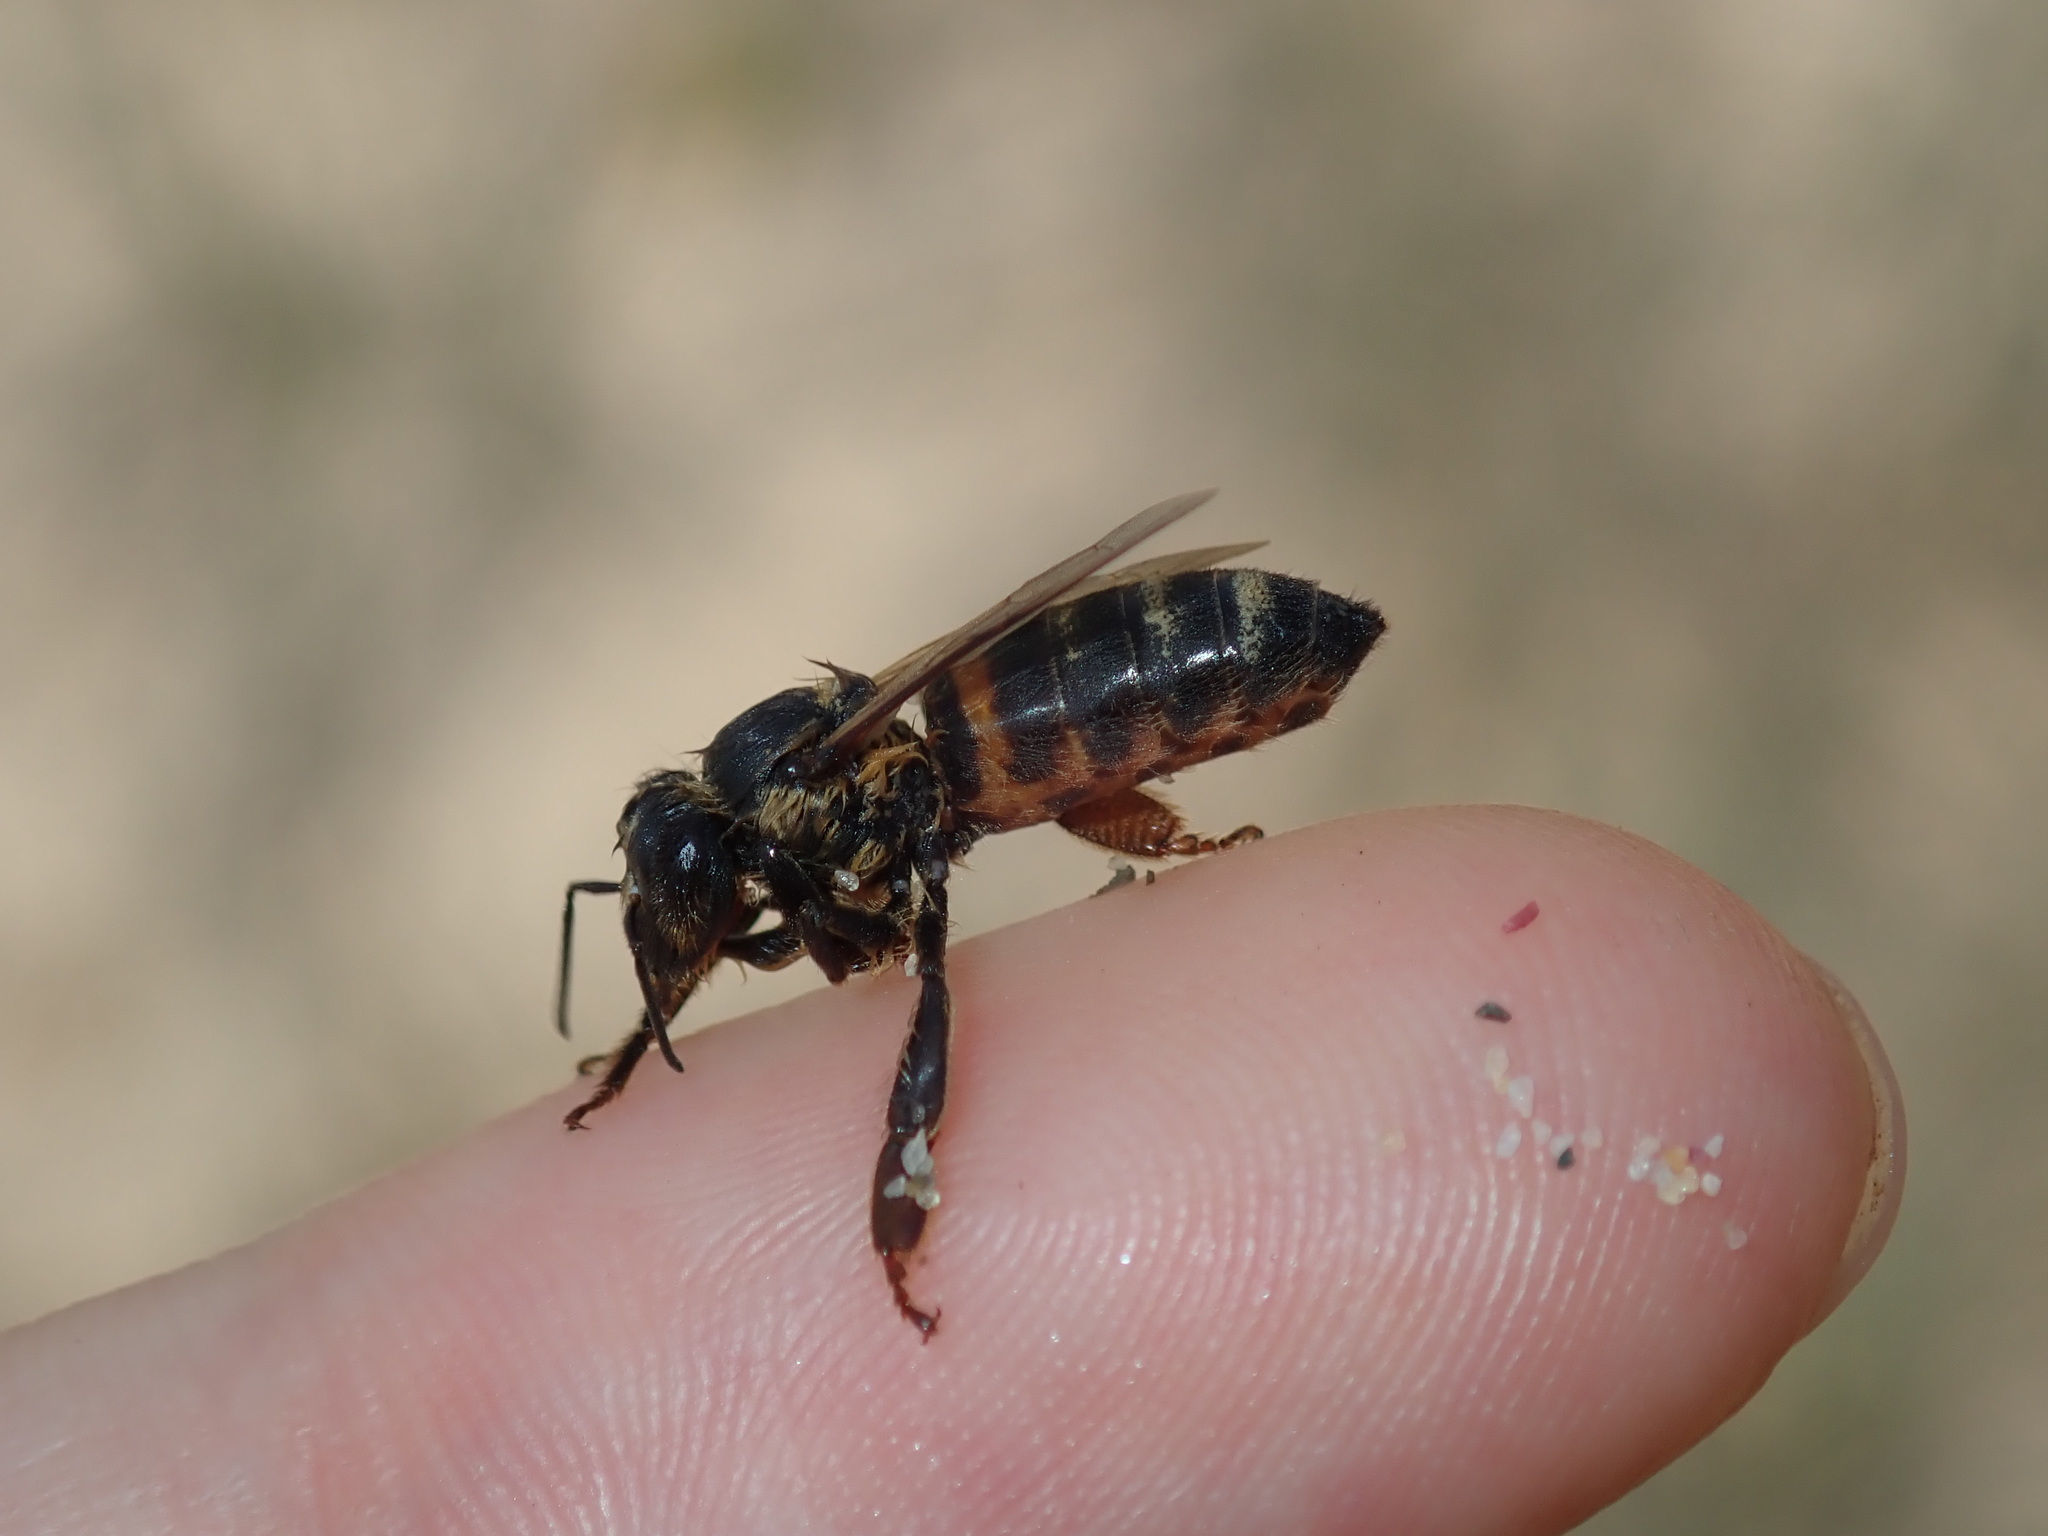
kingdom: Animalia
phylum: Arthropoda
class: Insecta
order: Hymenoptera
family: Apidae
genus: Apis
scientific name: Apis mellifera
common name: Honey bee
